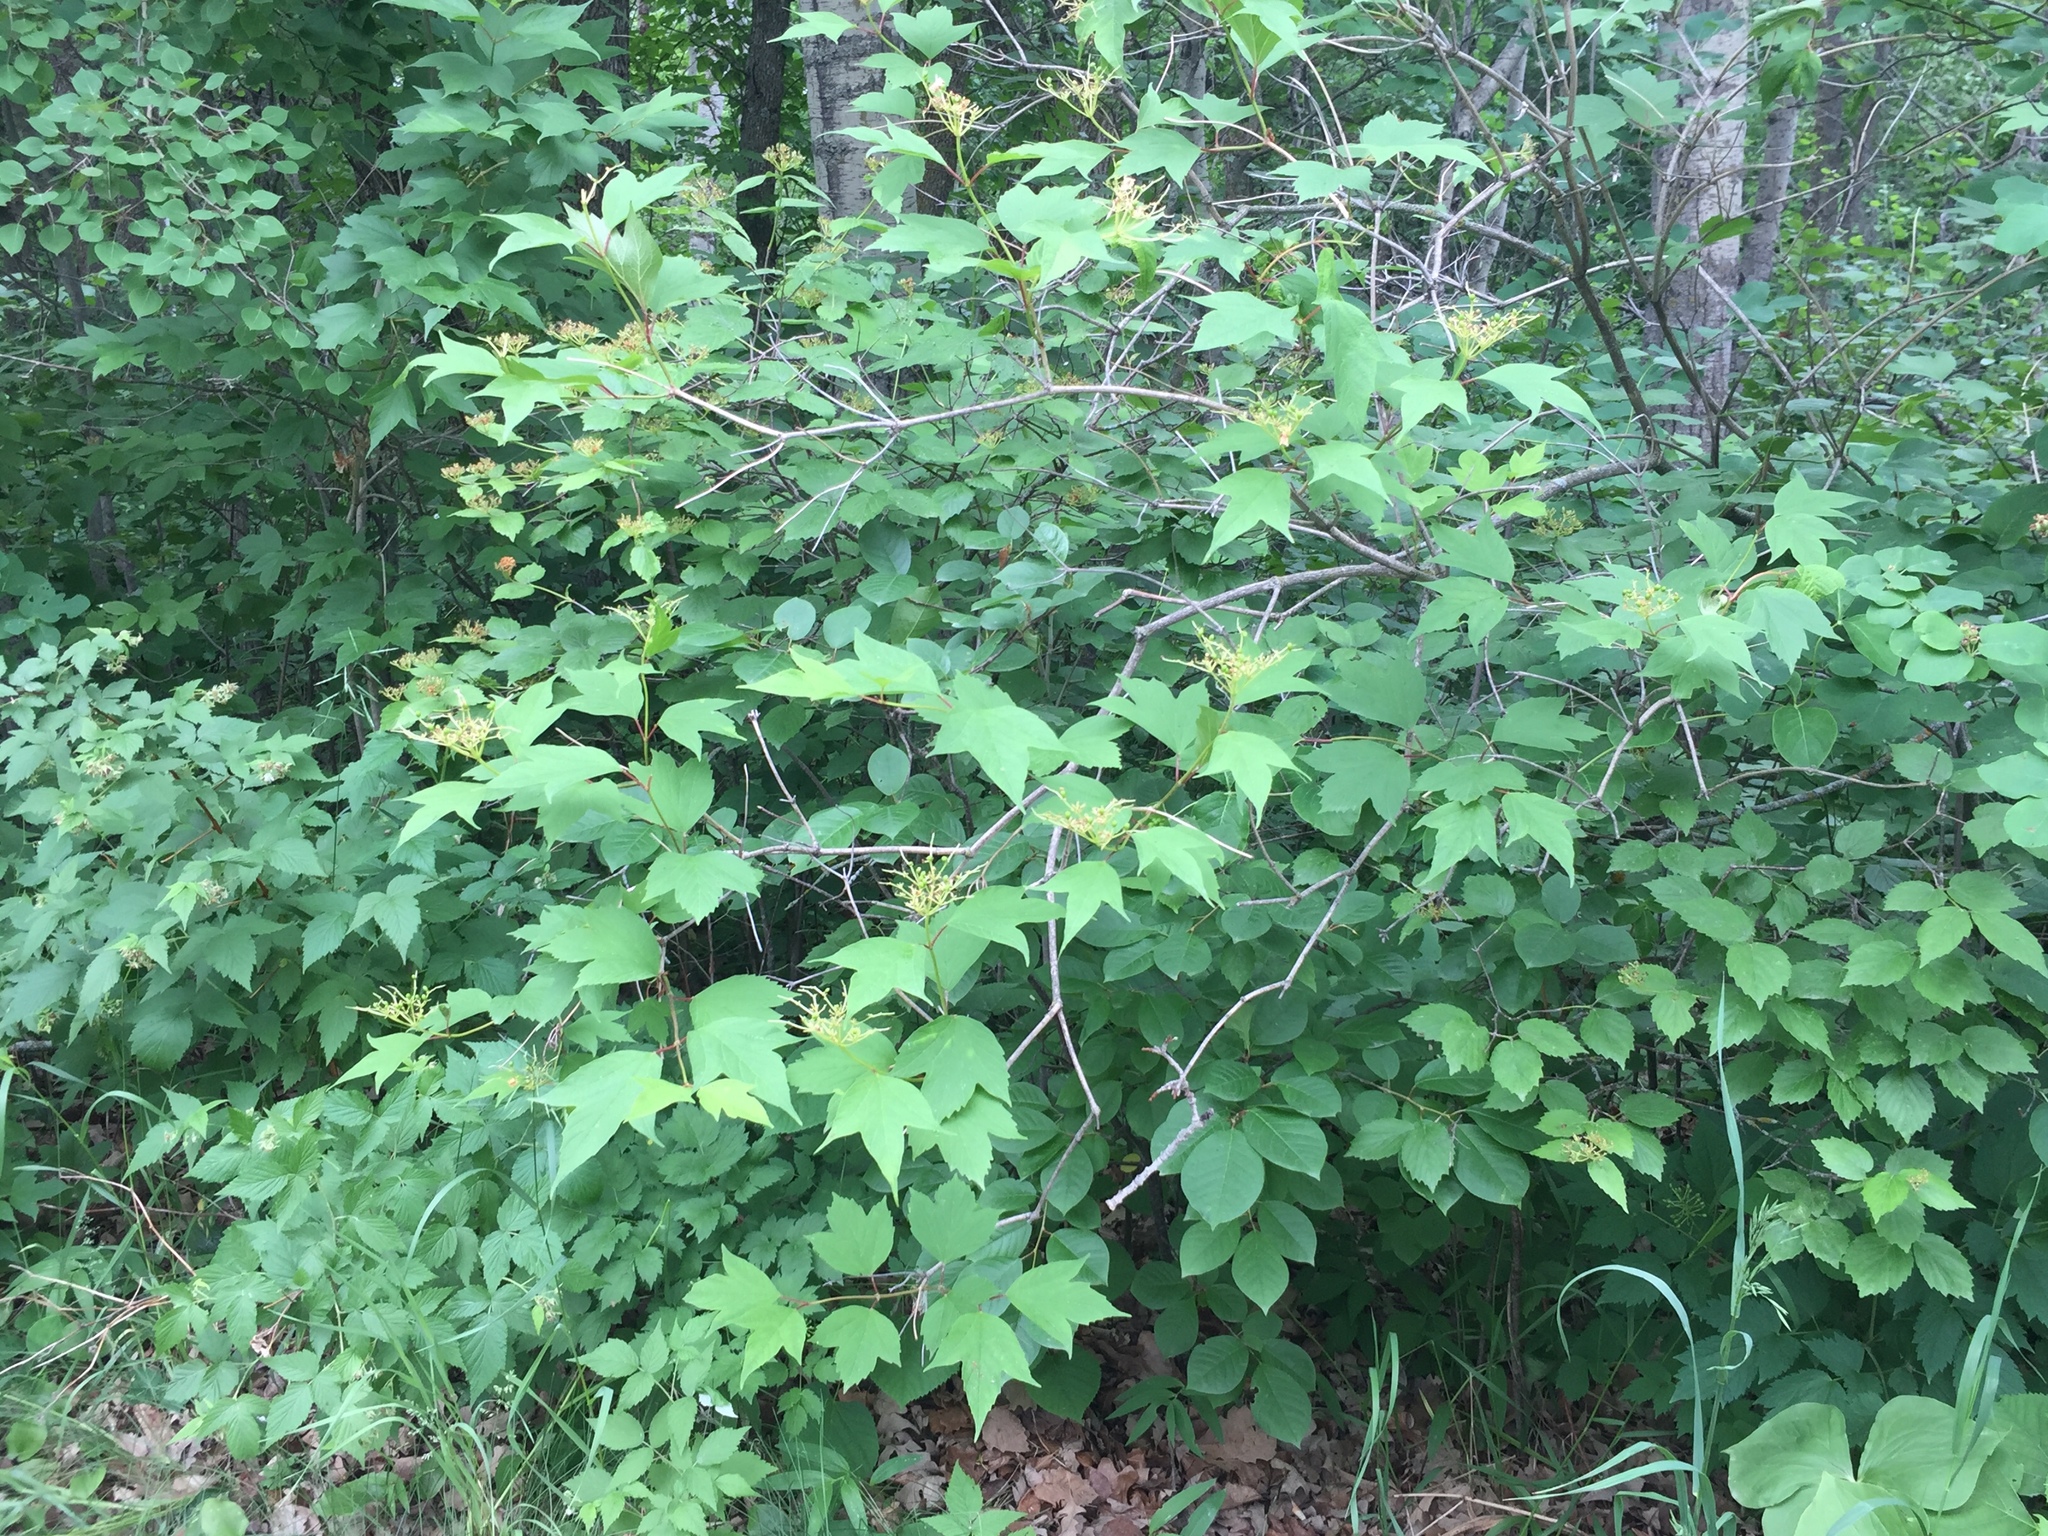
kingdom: Plantae
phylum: Tracheophyta
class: Magnoliopsida
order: Dipsacales
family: Viburnaceae
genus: Viburnum
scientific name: Viburnum opulus
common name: Guelder-rose
